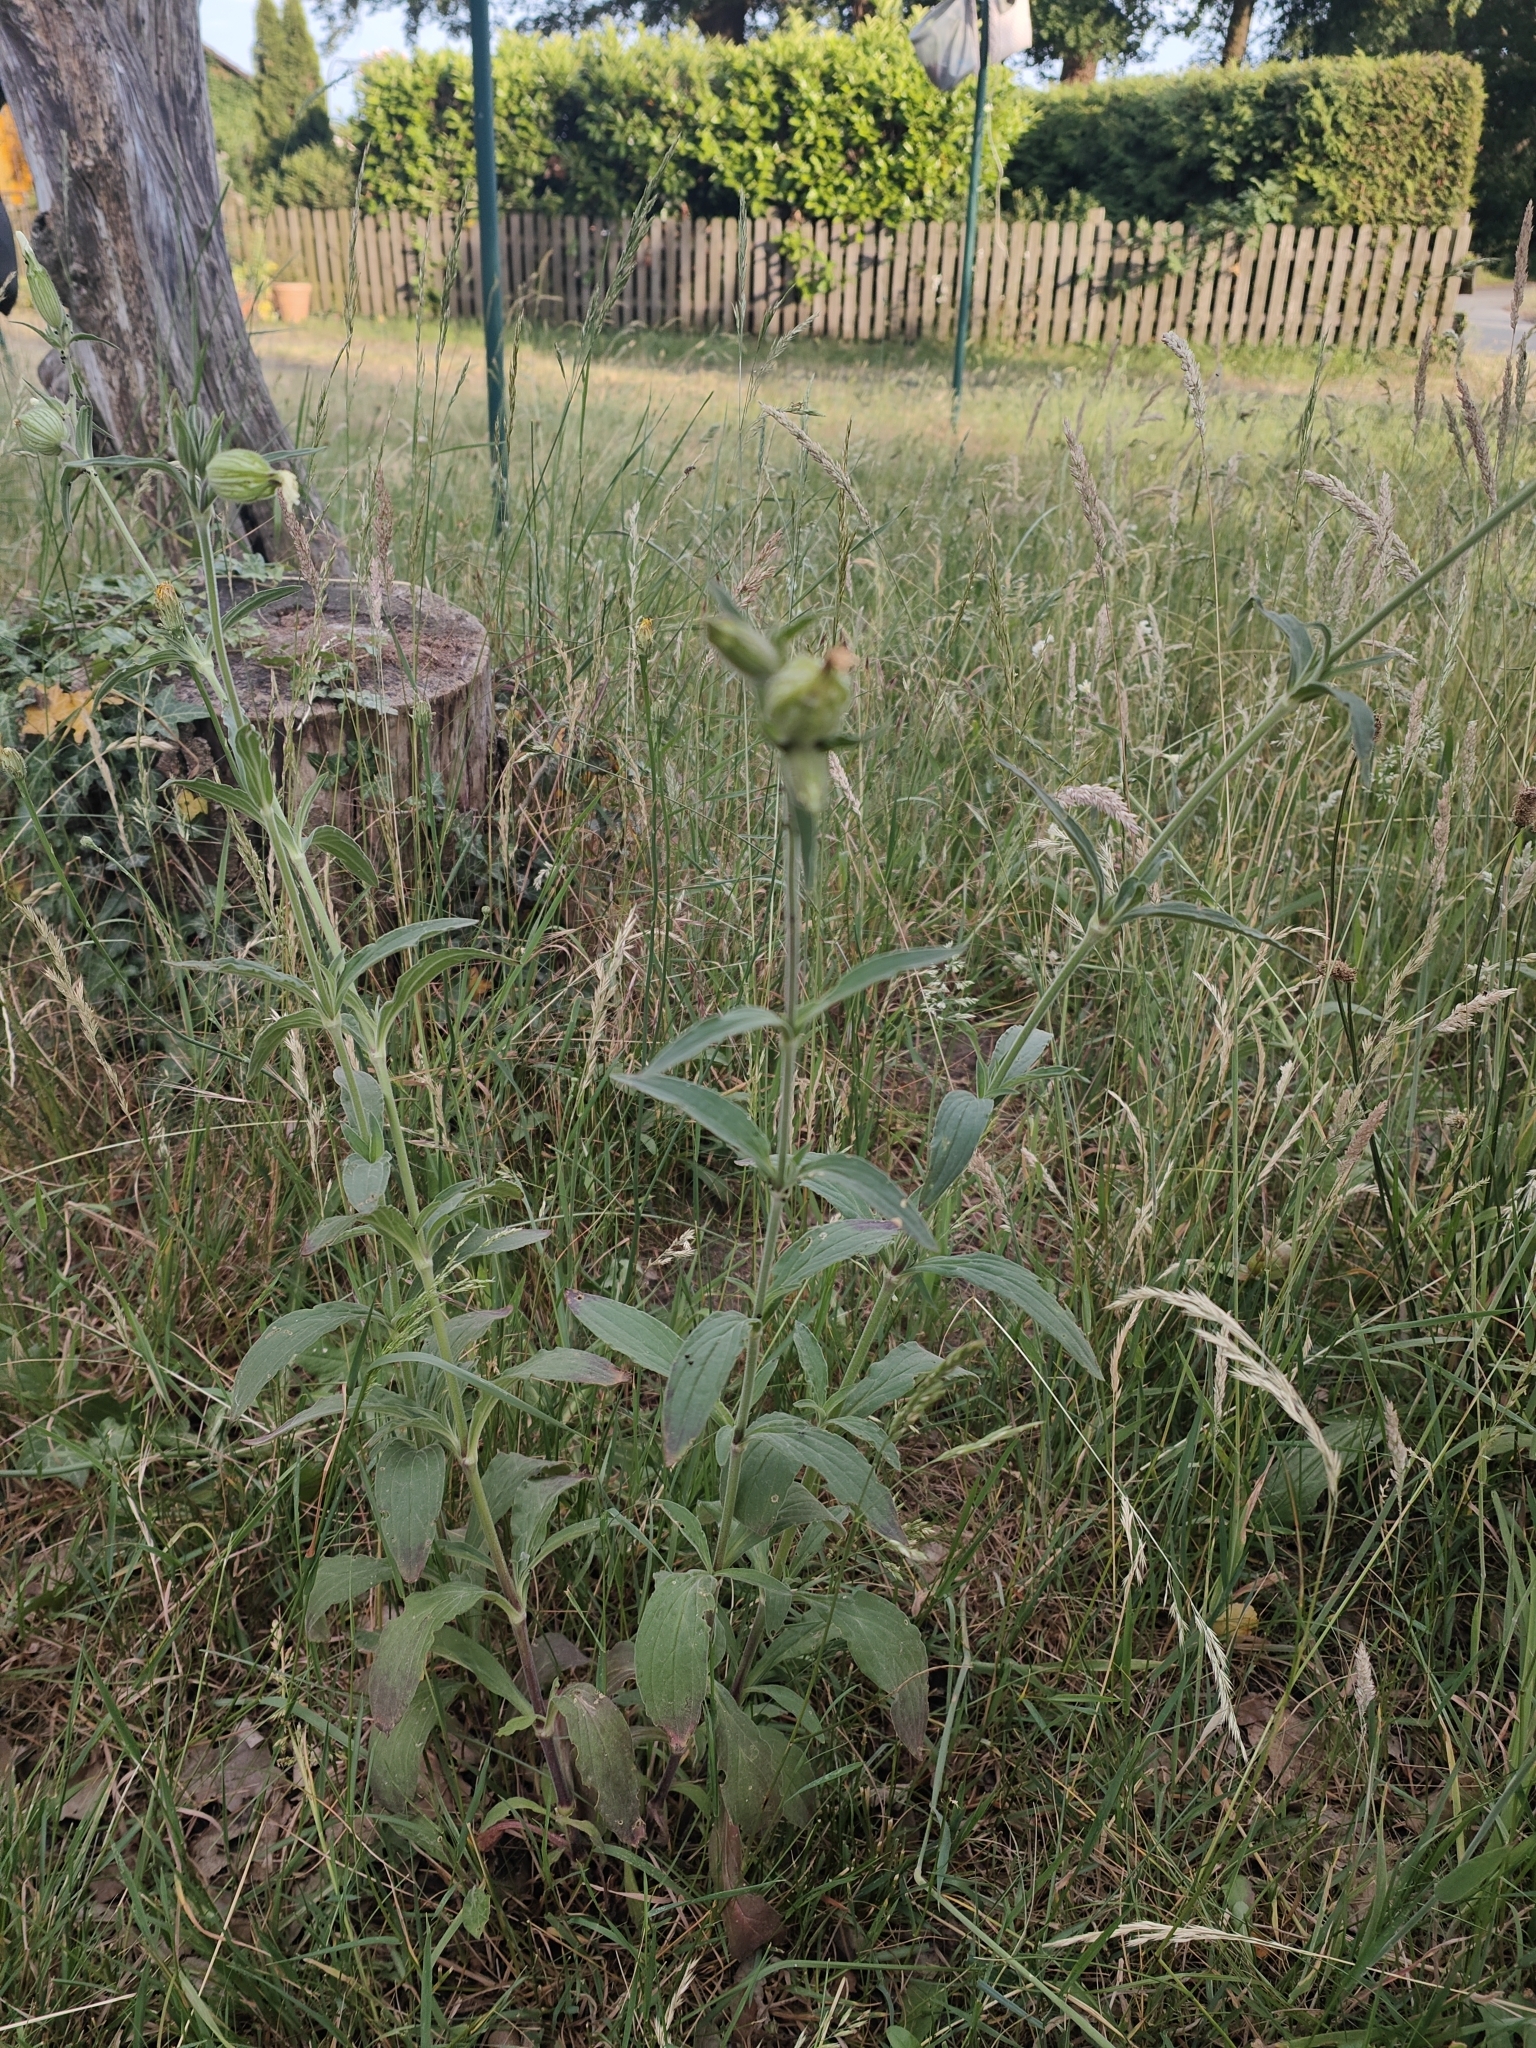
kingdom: Plantae
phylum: Tracheophyta
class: Magnoliopsida
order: Caryophyllales
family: Caryophyllaceae
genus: Silene
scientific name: Silene latifolia
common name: White campion
